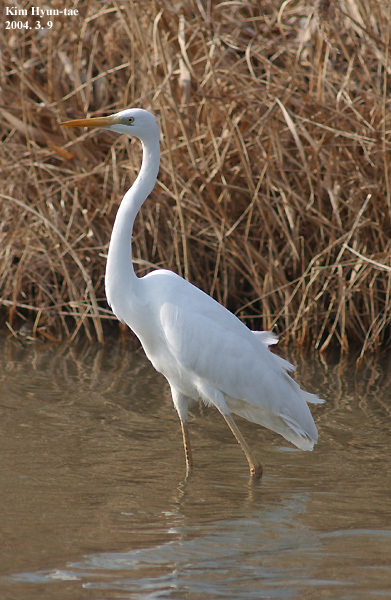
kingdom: Animalia
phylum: Chordata
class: Aves
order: Pelecaniformes
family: Ardeidae
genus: Ardea
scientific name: Ardea alba
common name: Great egret
